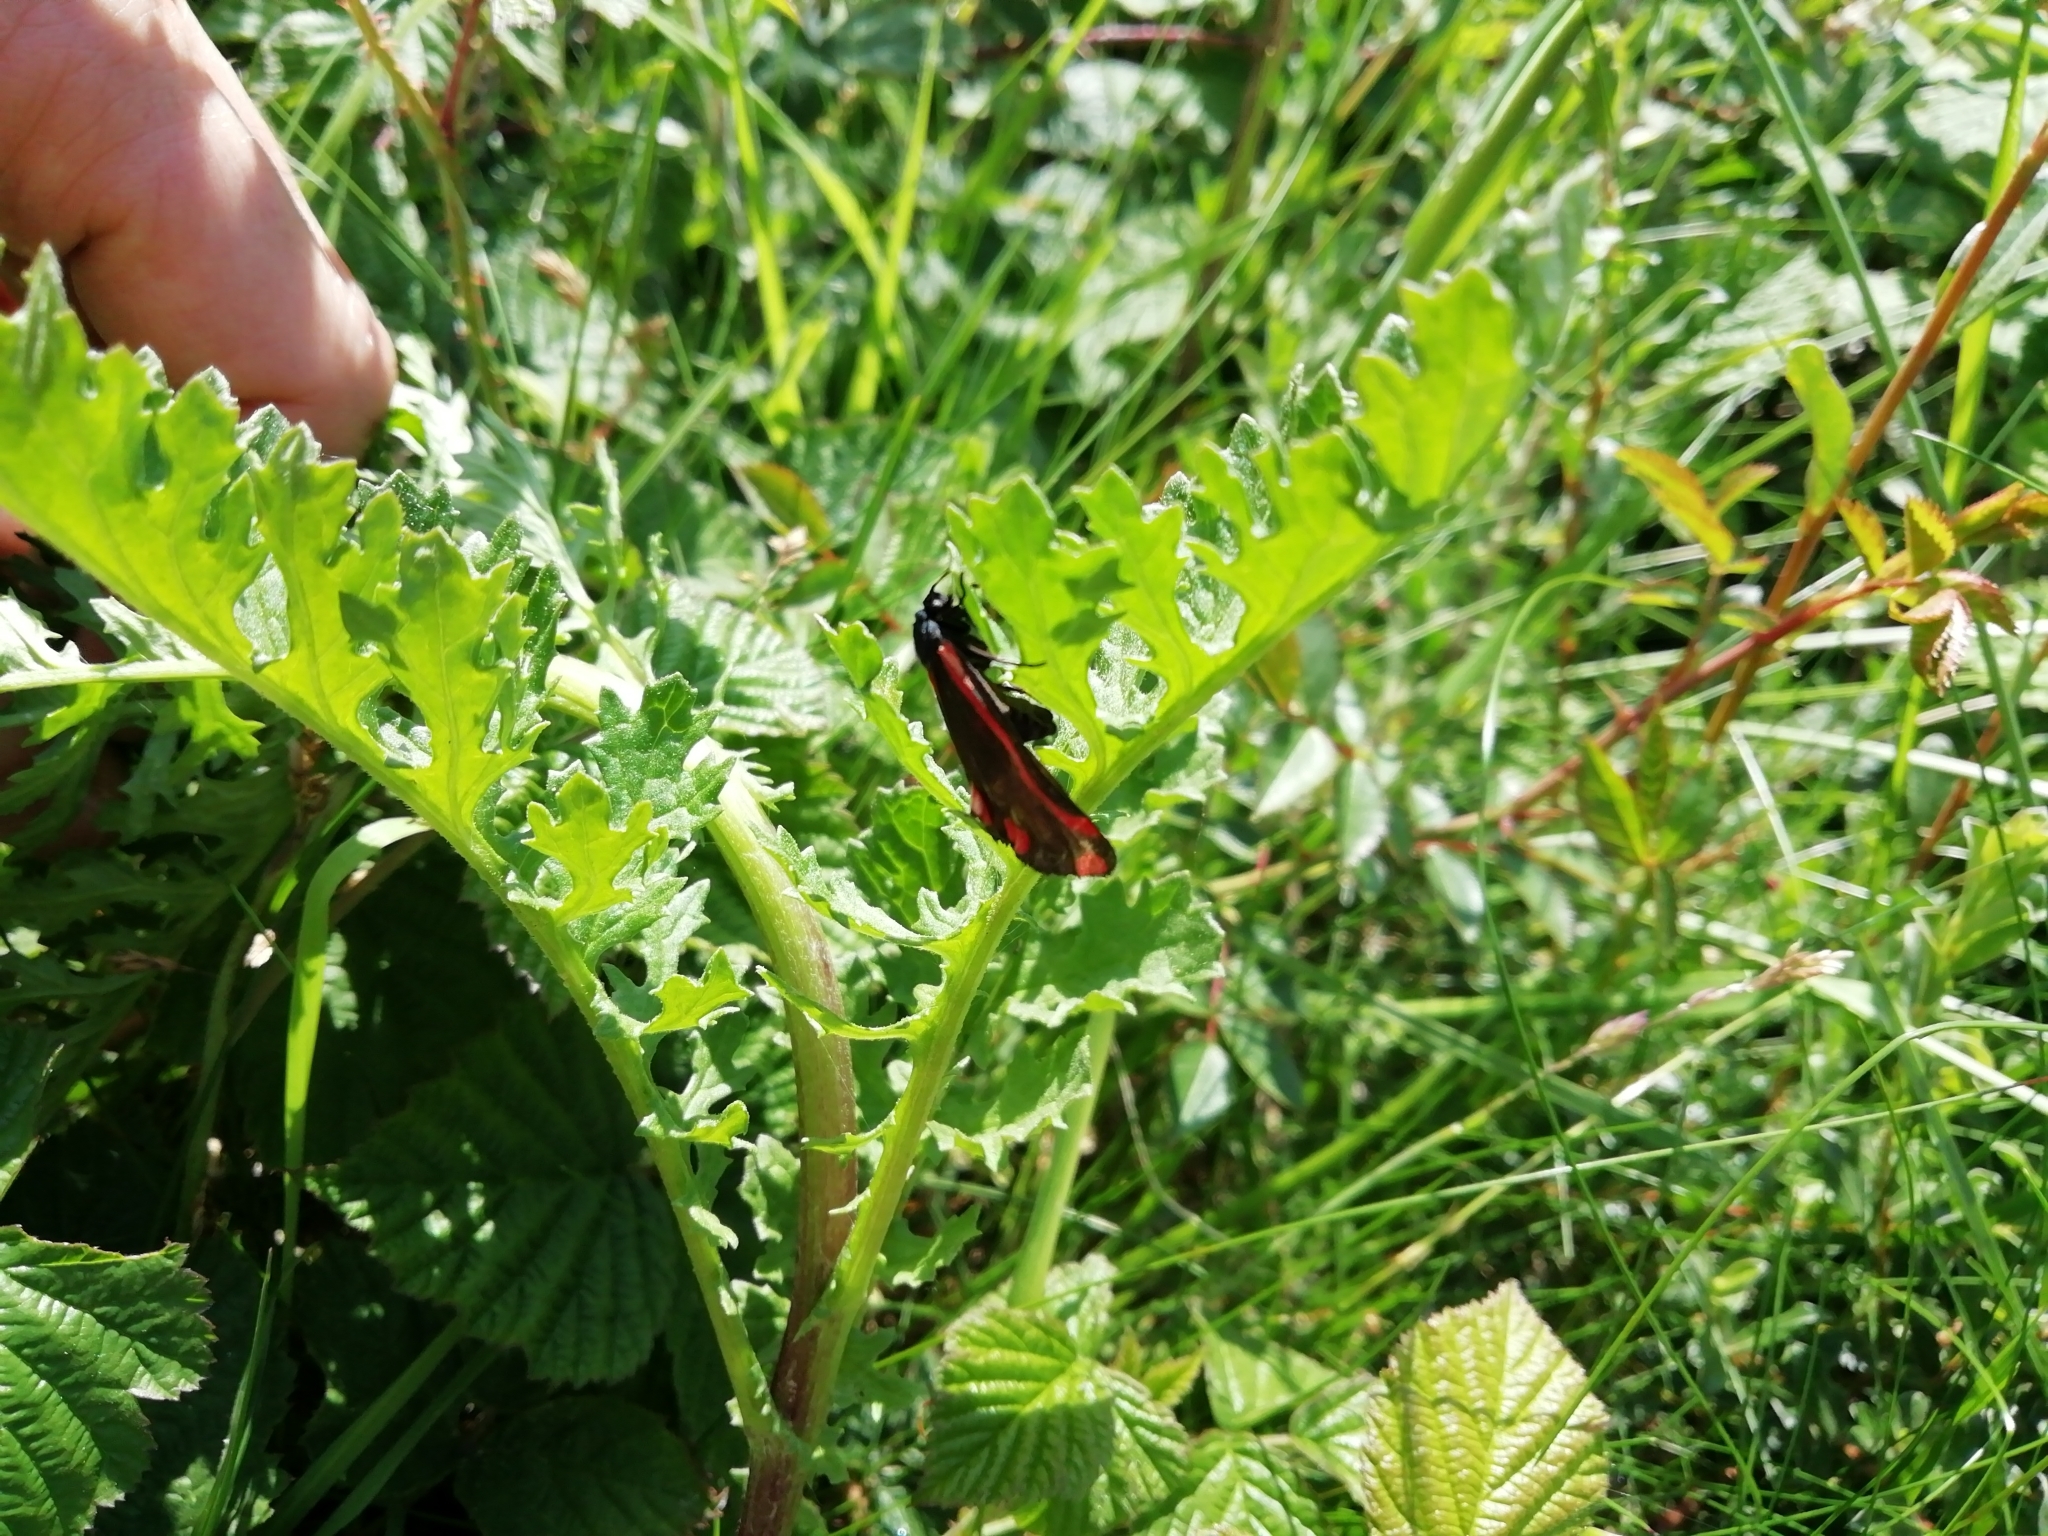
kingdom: Animalia
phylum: Arthropoda
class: Insecta
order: Lepidoptera
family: Erebidae
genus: Tyria
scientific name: Tyria jacobaeae
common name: Cinnabar
